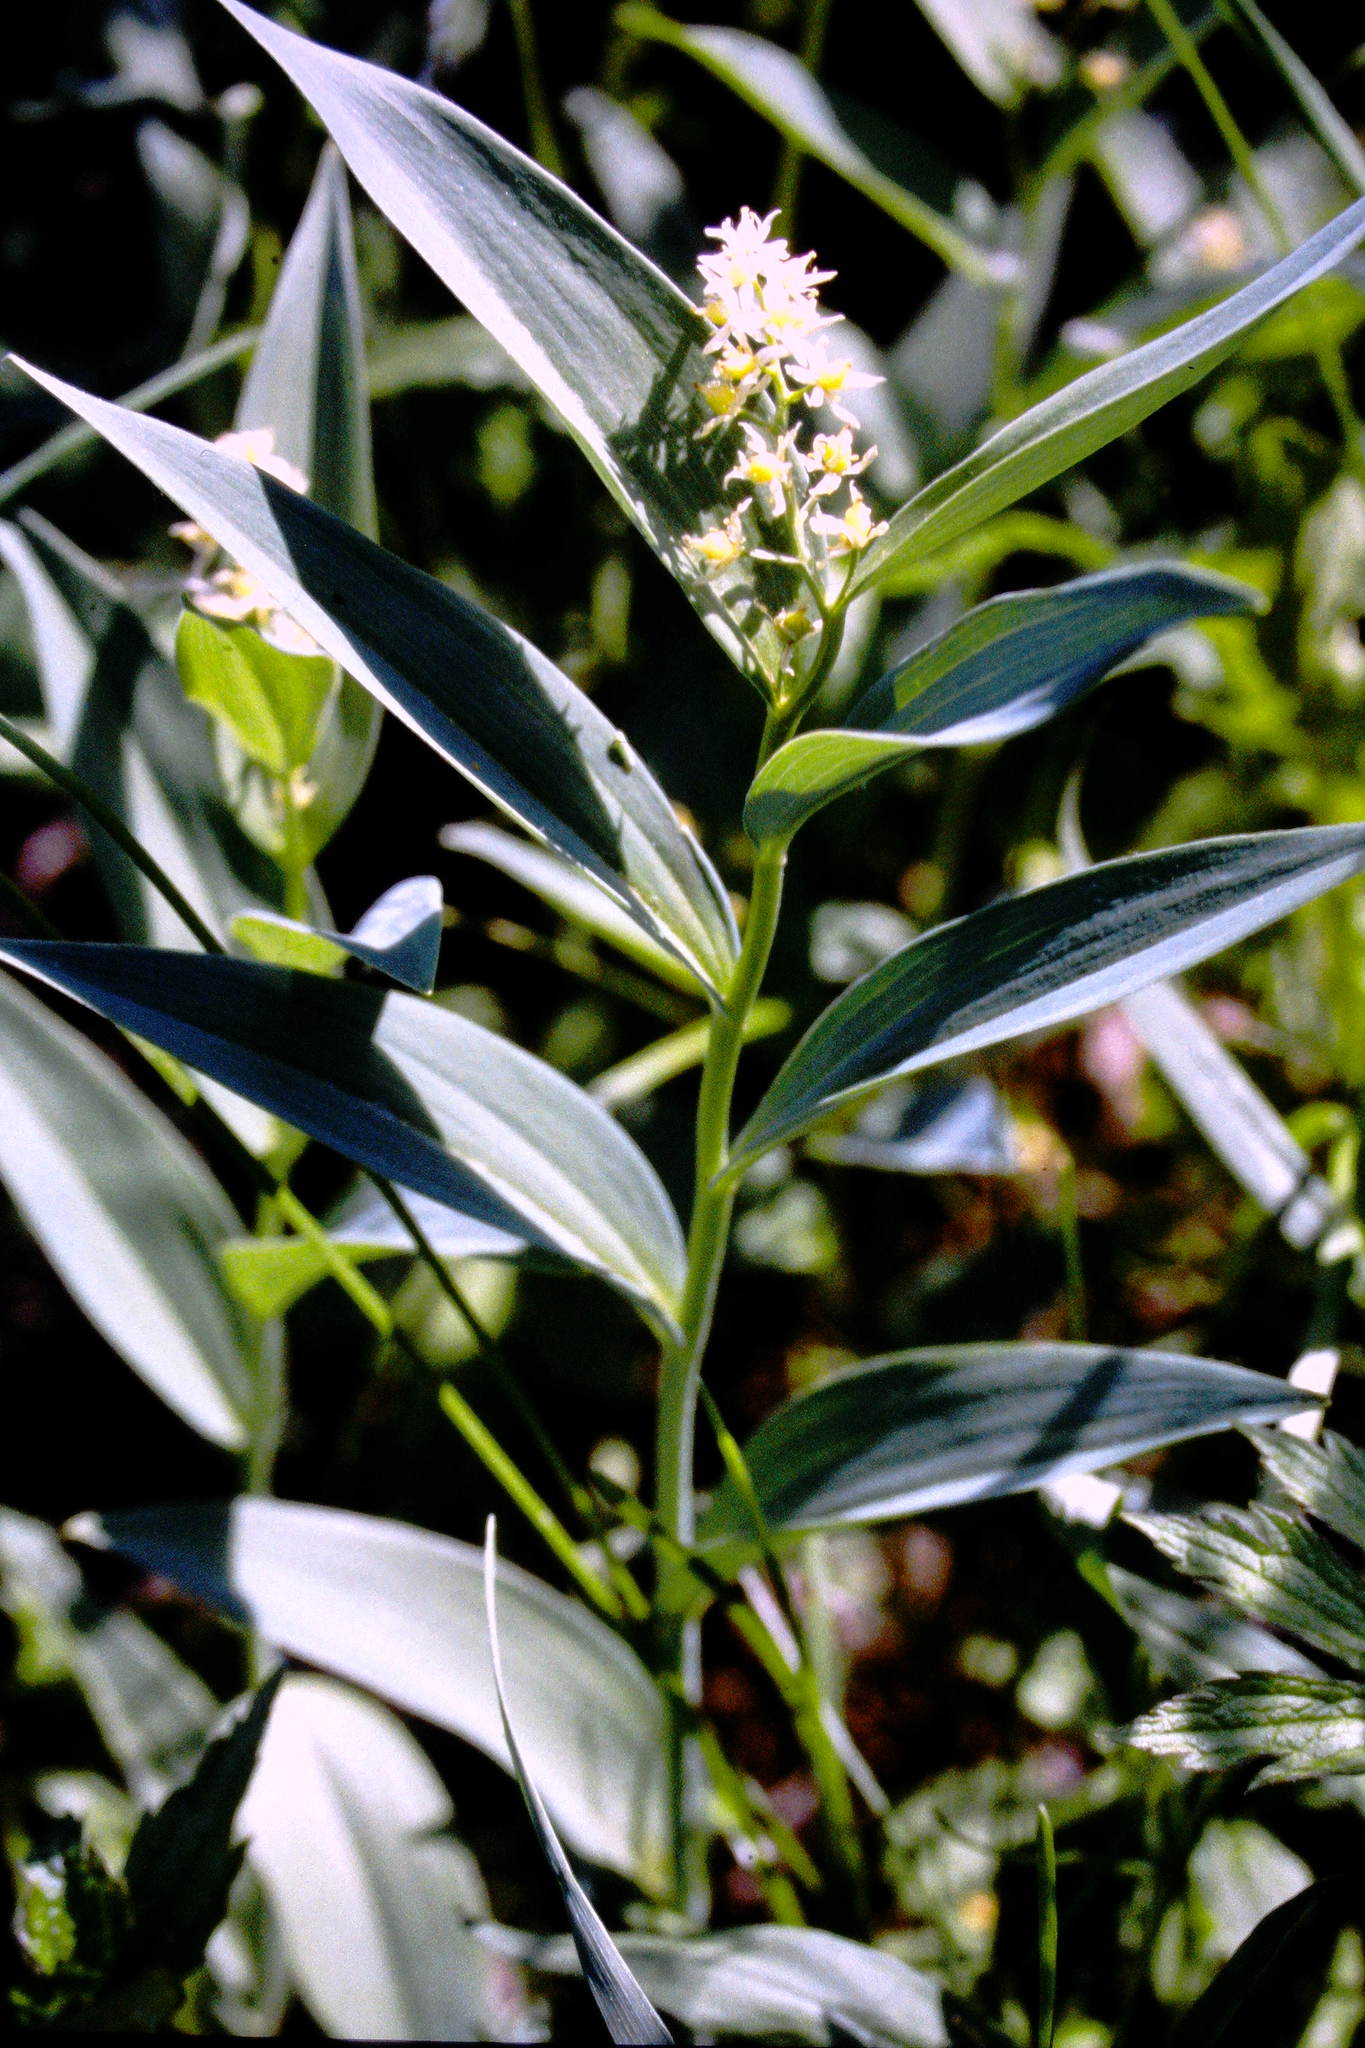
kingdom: Plantae
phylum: Tracheophyta
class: Liliopsida
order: Asparagales
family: Asparagaceae
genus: Maianthemum
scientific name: Maianthemum stellatum
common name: Little false solomon's seal
